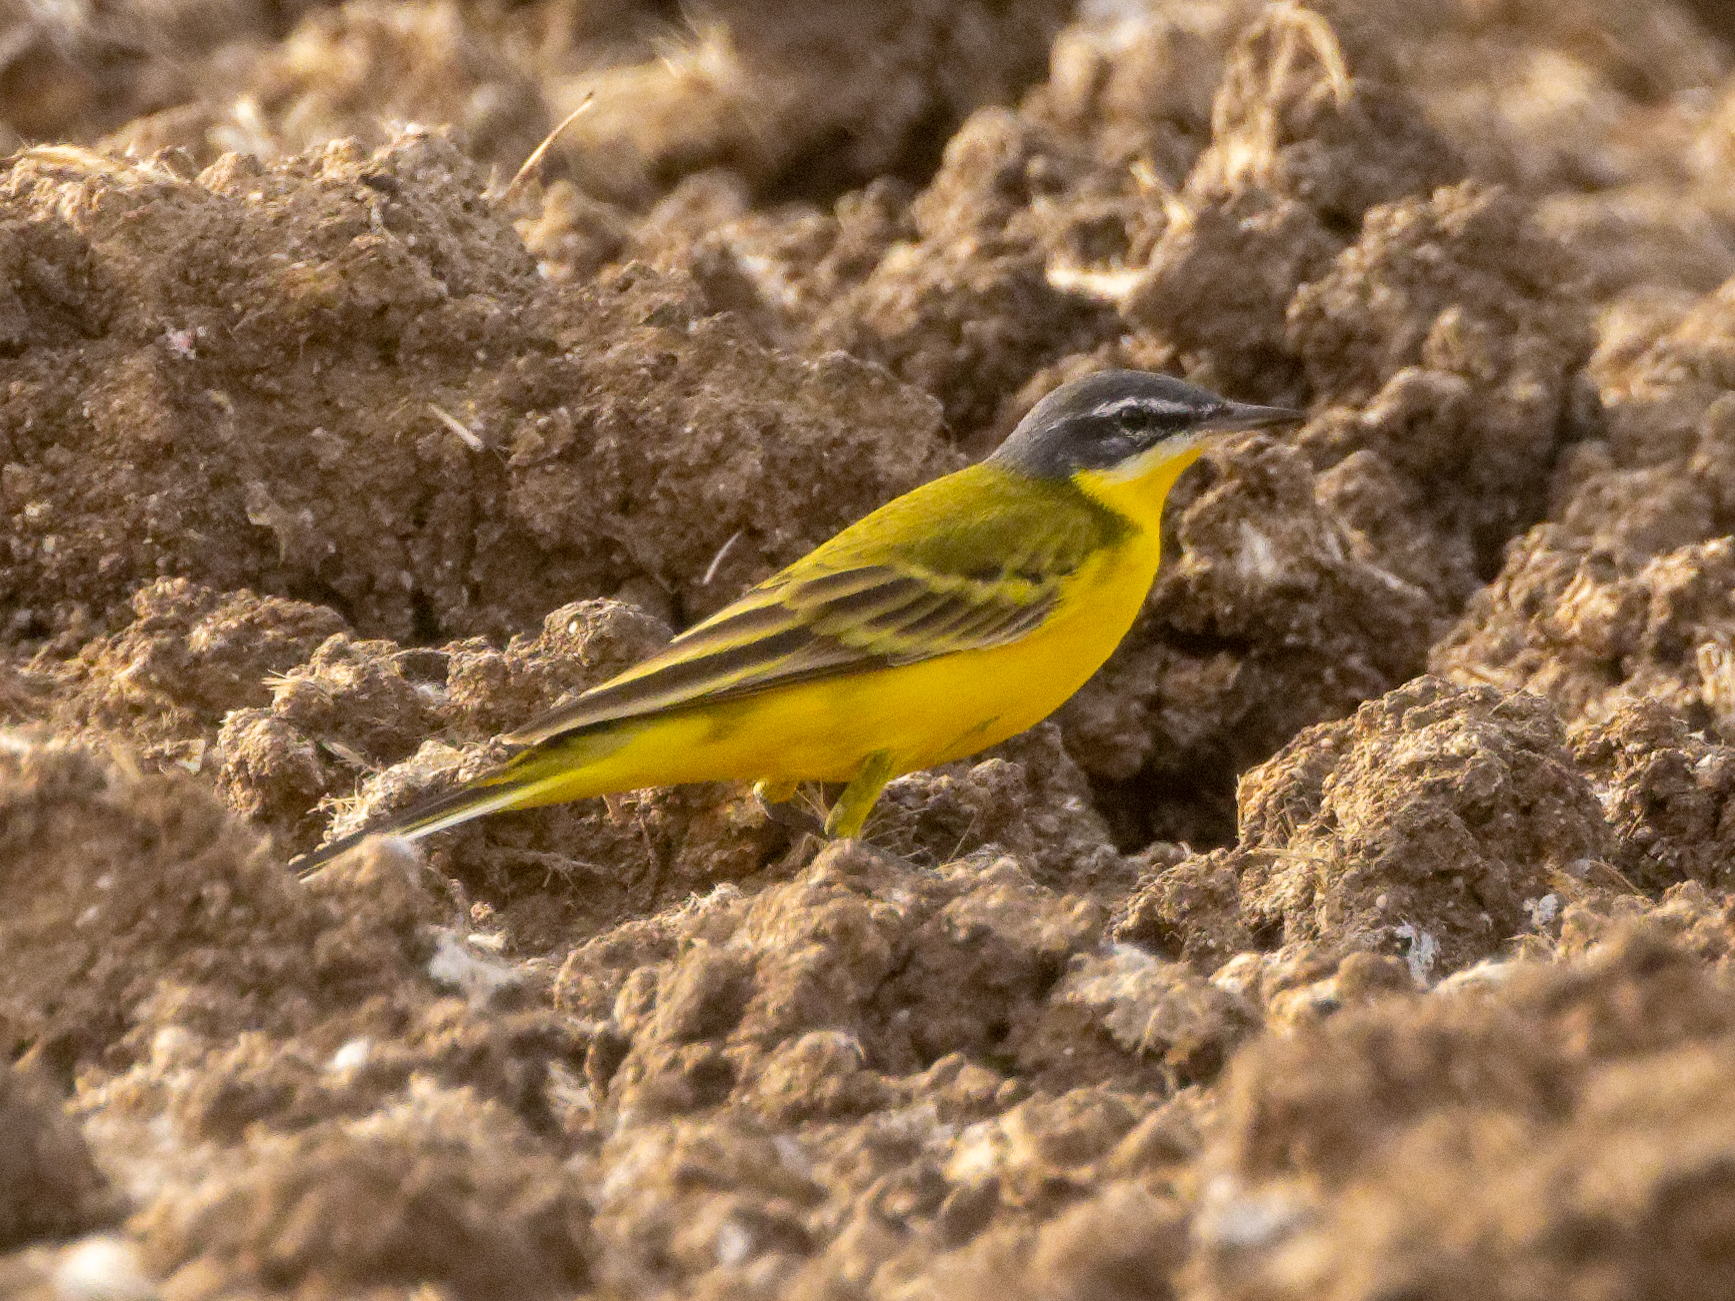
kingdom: Animalia
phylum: Chordata
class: Aves
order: Passeriformes
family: Motacillidae
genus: Motacilla
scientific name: Motacilla flava
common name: Western yellow wagtail
